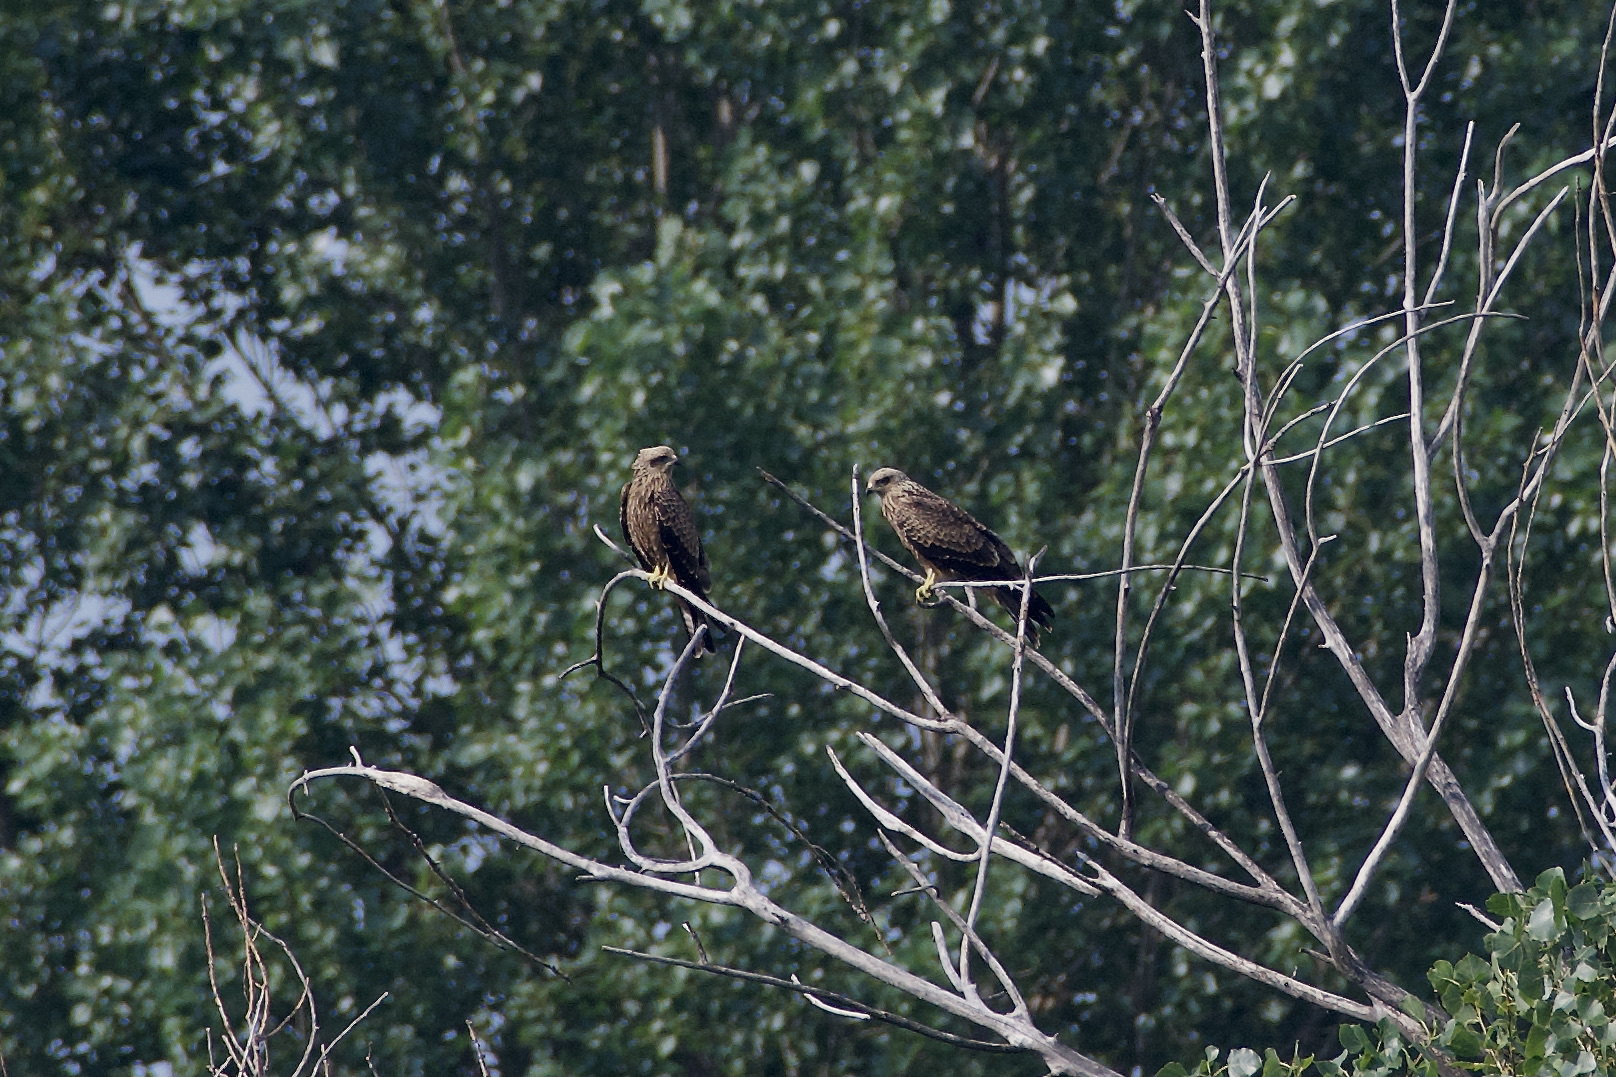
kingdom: Animalia
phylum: Chordata
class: Aves
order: Accipitriformes
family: Accipitridae
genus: Milvus
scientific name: Milvus migrans
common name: Black kite
